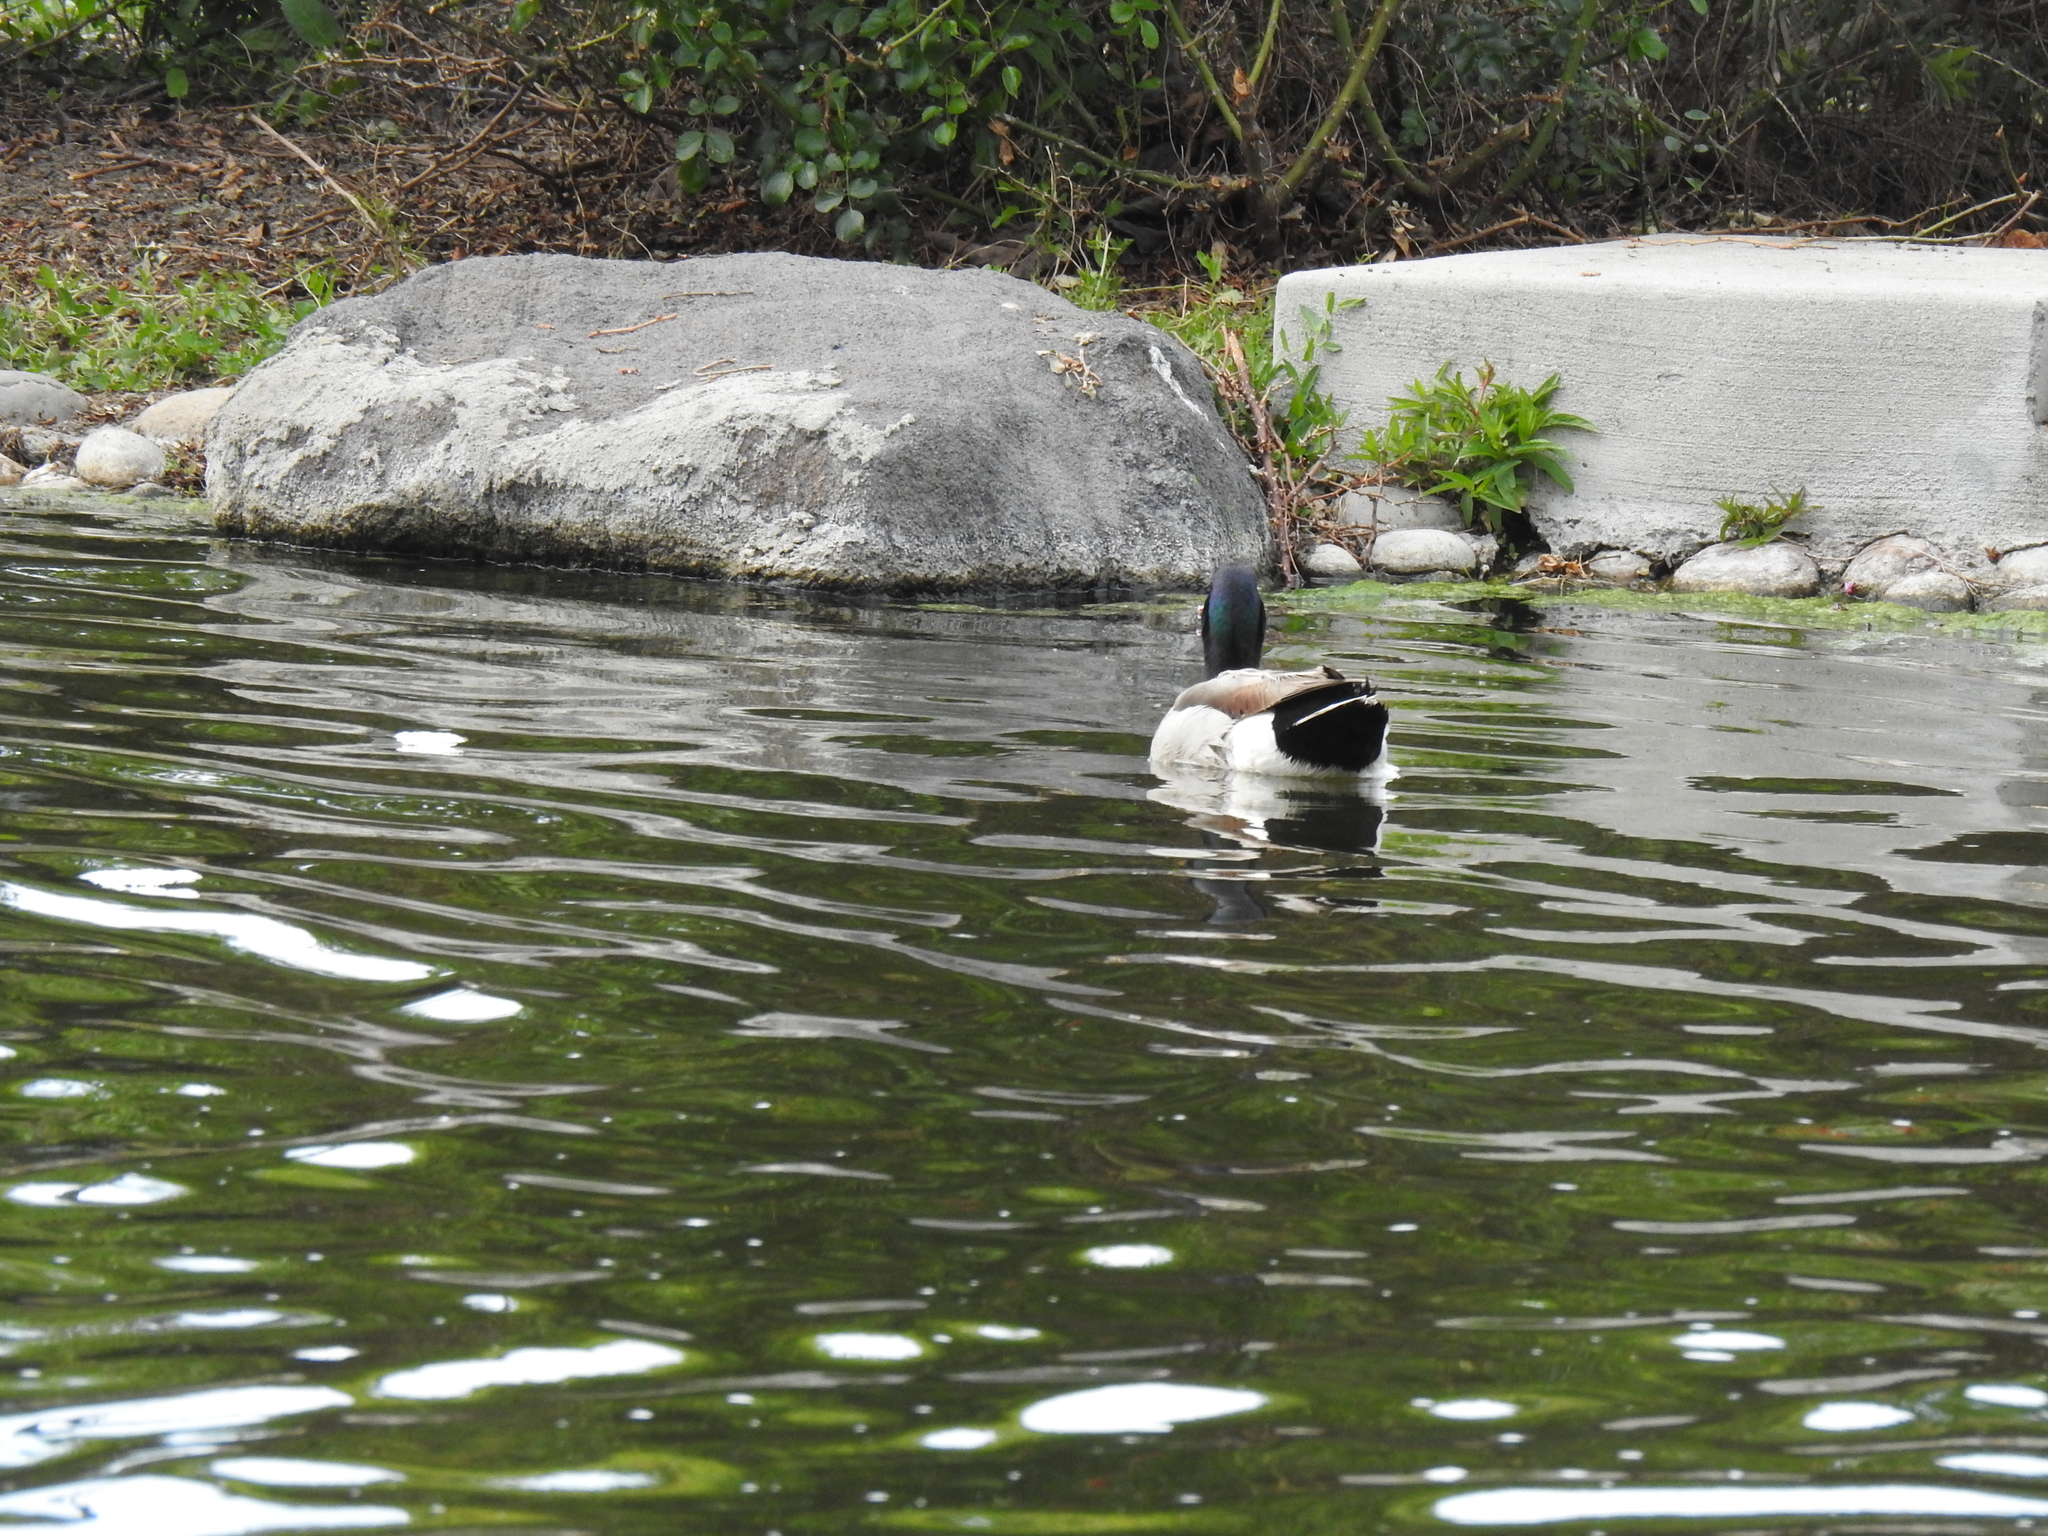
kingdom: Animalia
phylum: Chordata
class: Aves
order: Anseriformes
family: Anatidae
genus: Anas
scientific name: Anas platyrhynchos
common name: Mallard
